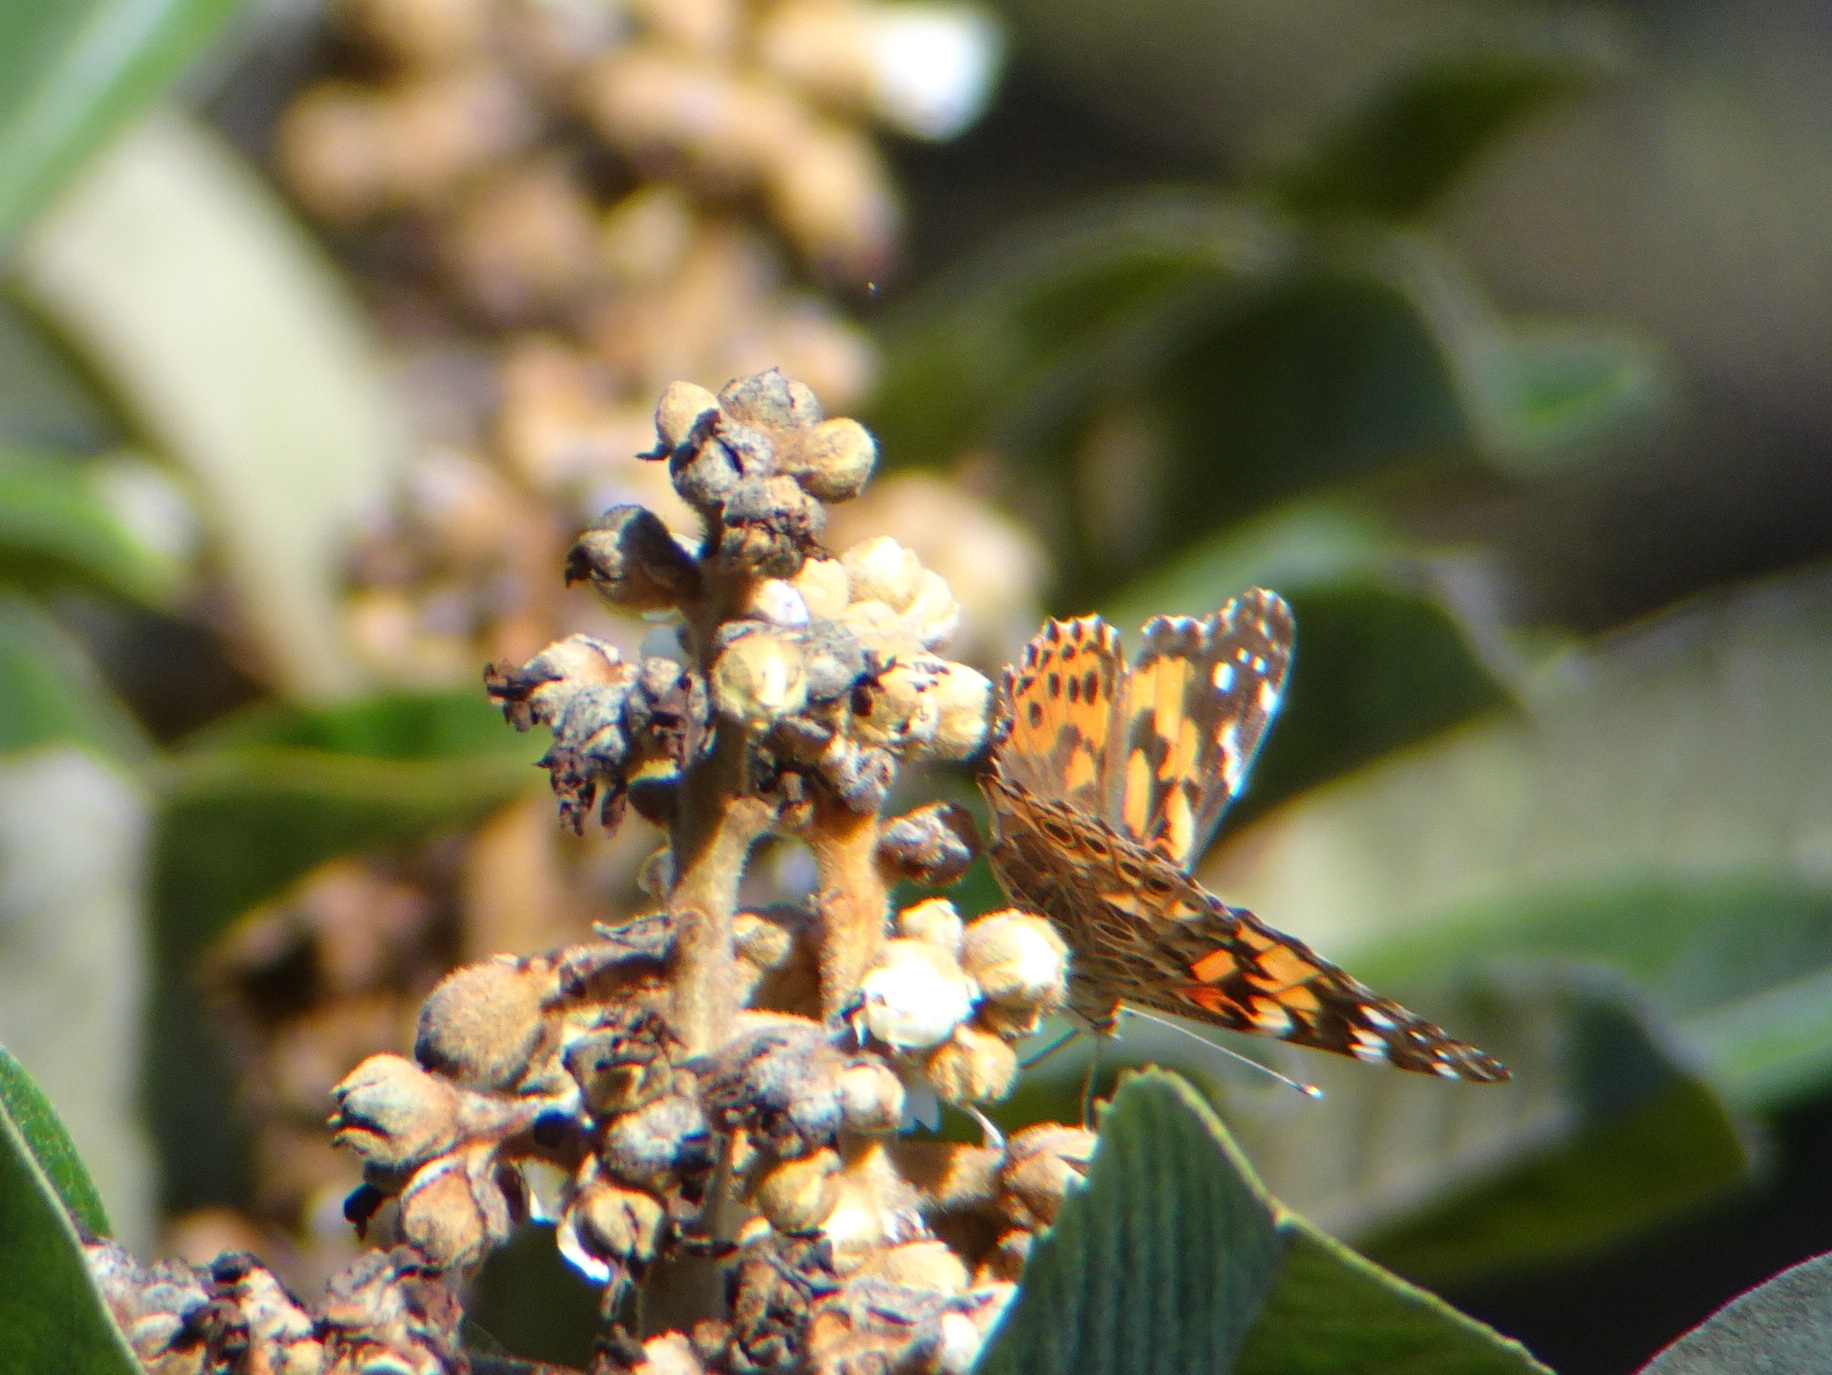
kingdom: Animalia
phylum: Arthropoda
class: Insecta
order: Lepidoptera
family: Nymphalidae
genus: Vanessa
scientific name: Vanessa cardui
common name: Painted lady
